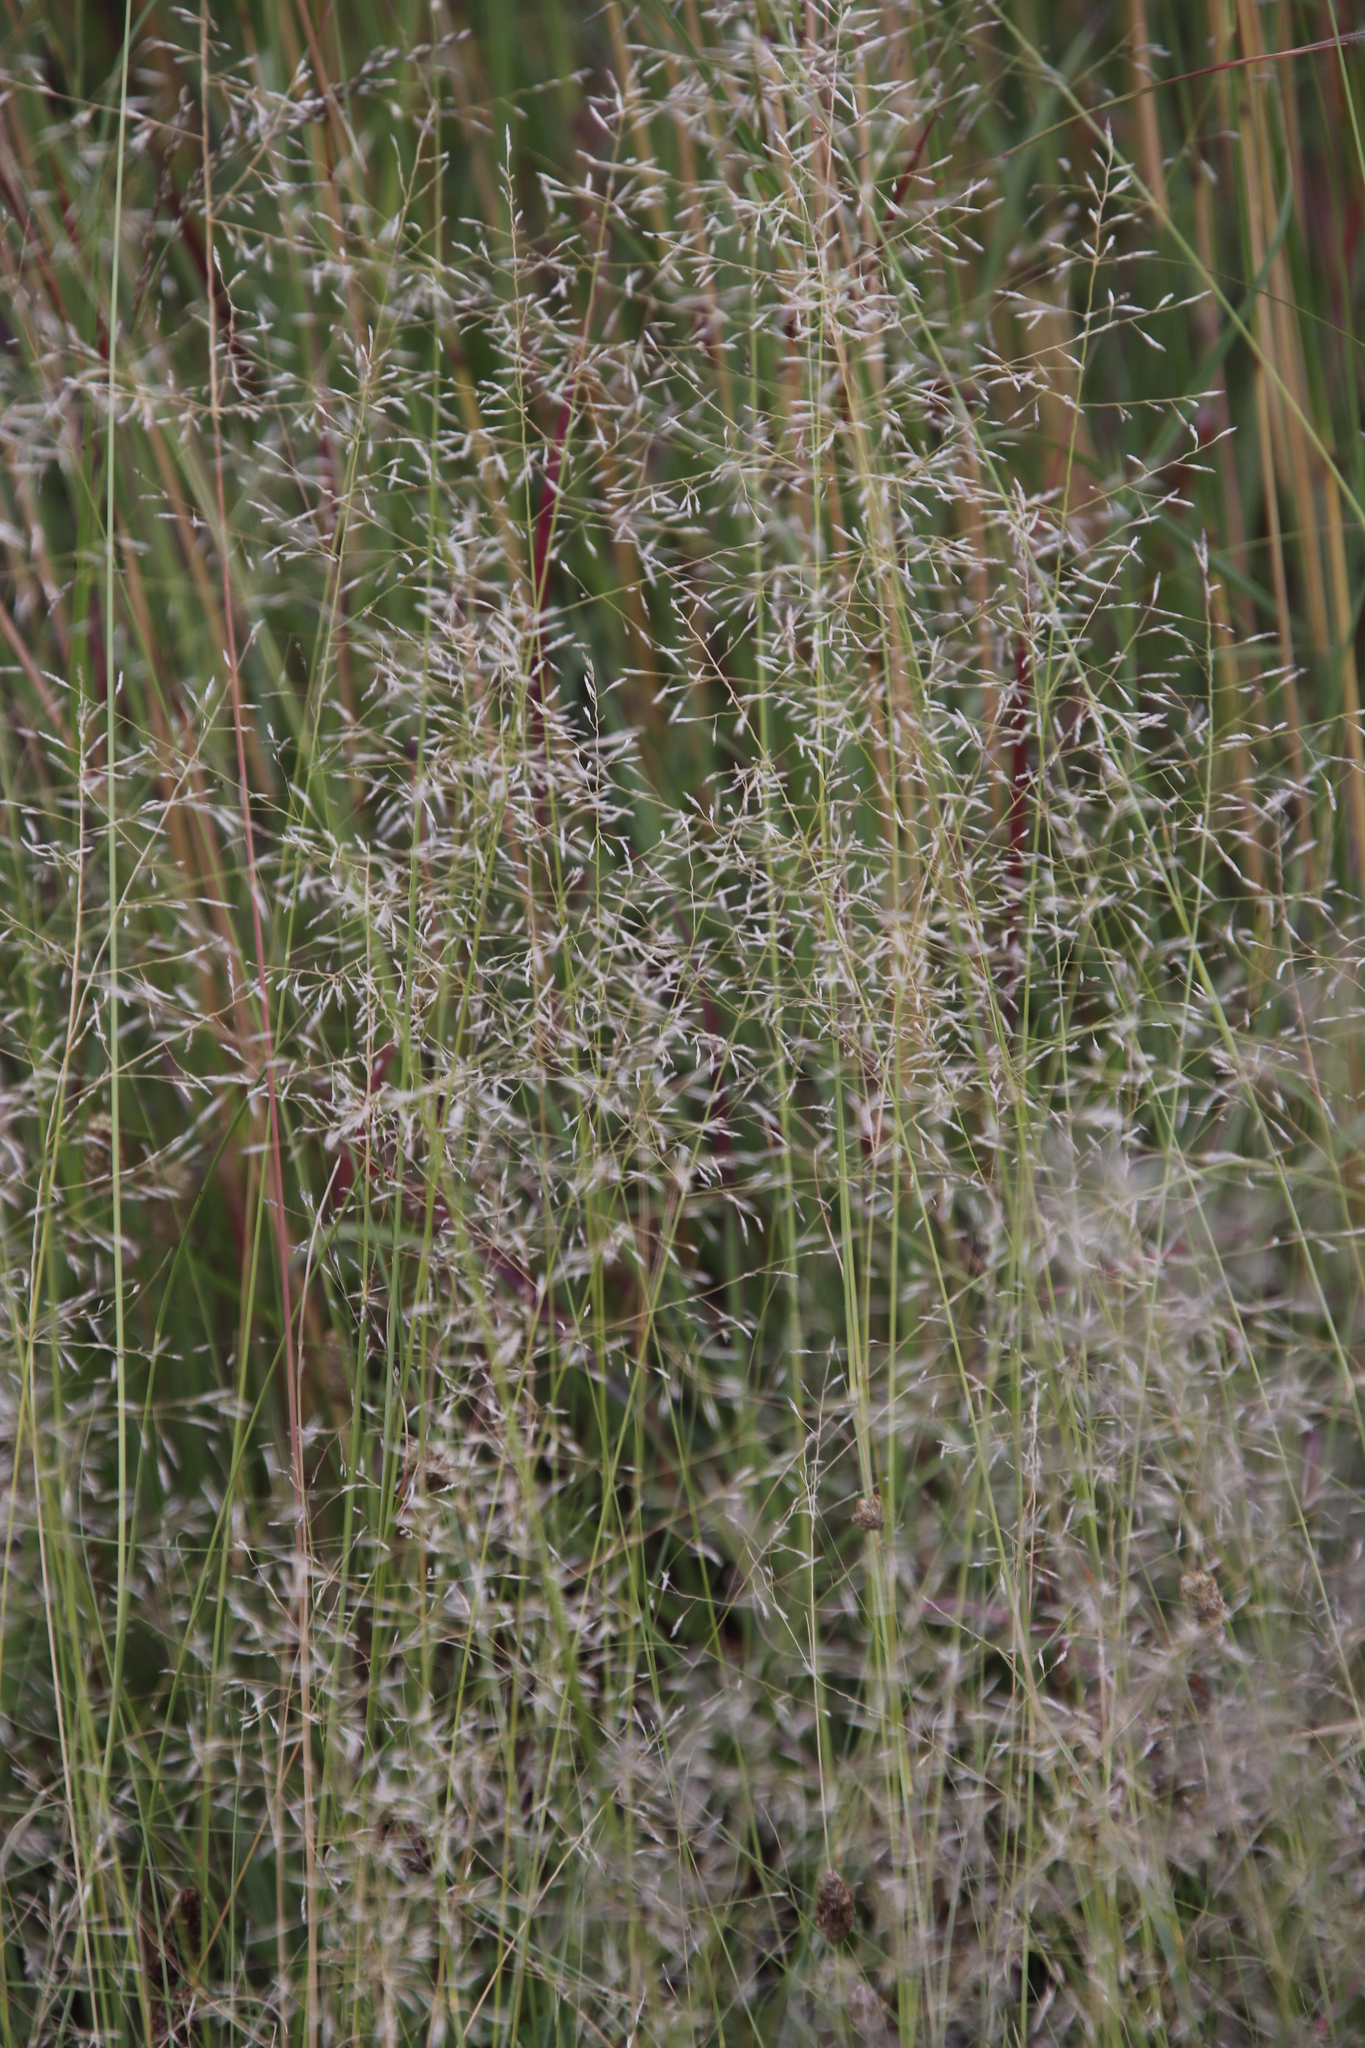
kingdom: Plantae
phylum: Tracheophyta
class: Liliopsida
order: Poales
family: Poaceae
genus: Eragrostis
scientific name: Eragrostis lehmanniana
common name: Lehmann lovegrass
